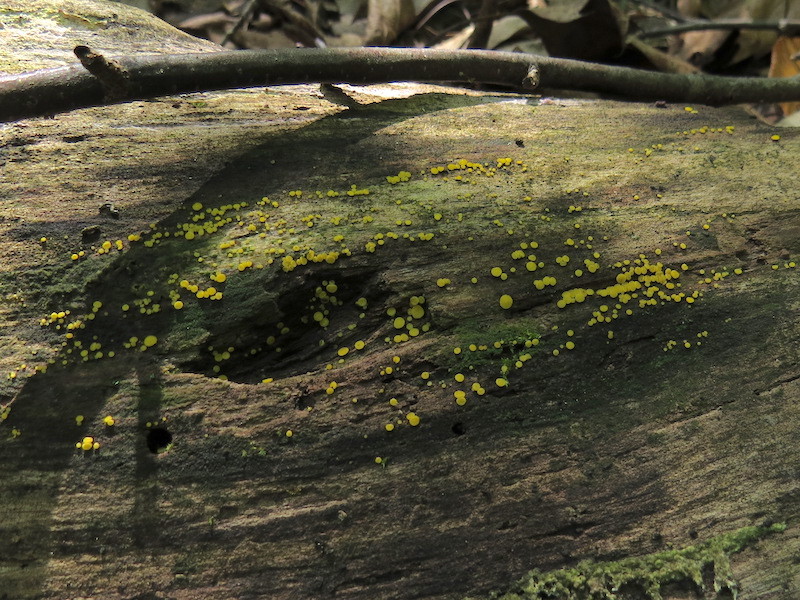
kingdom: Fungi
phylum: Ascomycota
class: Leotiomycetes
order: Helotiales
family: Pezizellaceae
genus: Calycina
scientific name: Calycina citrina
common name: Yellow fairy cups
